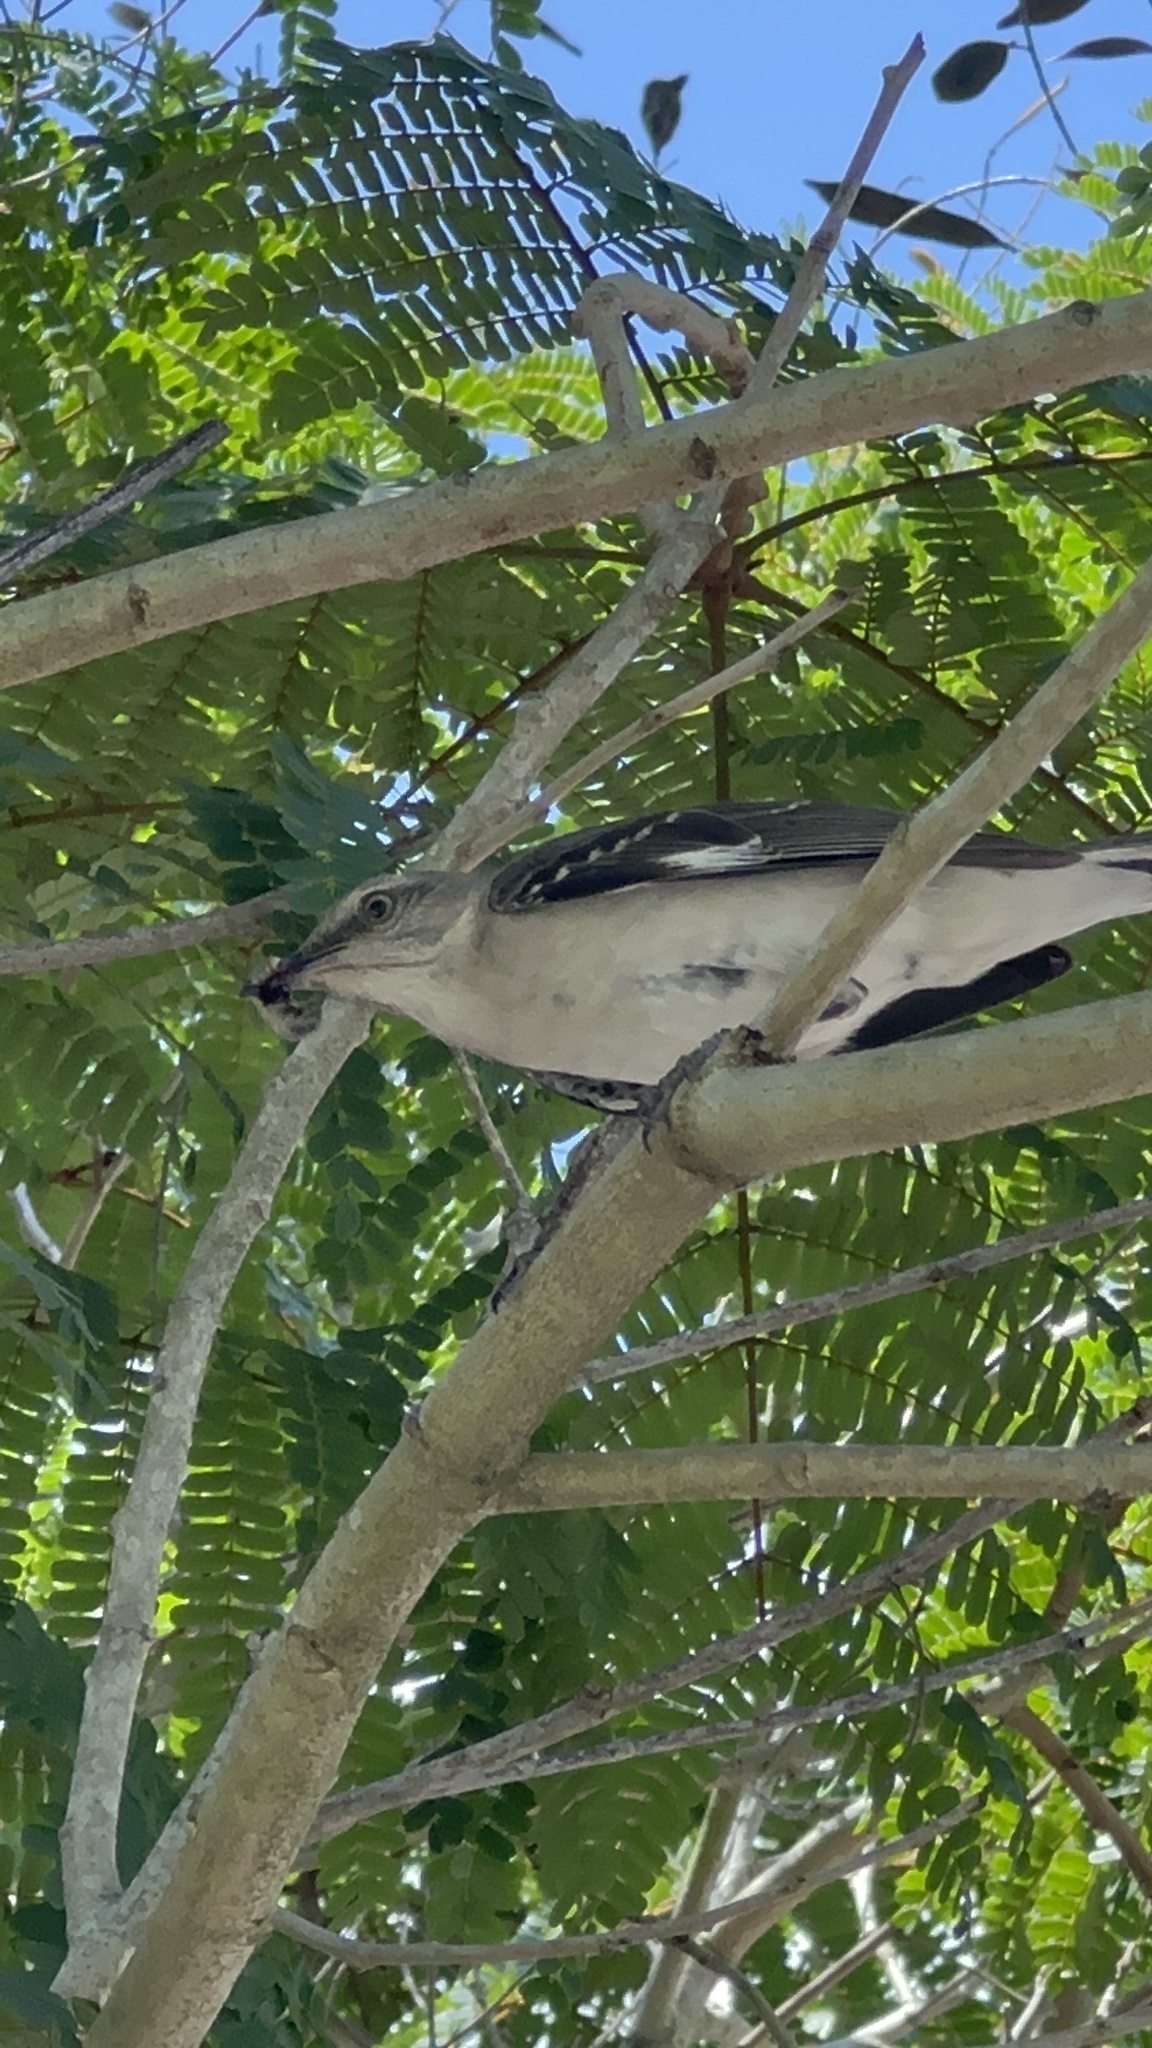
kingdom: Animalia
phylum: Chordata
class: Aves
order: Passeriformes
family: Mimidae
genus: Mimus
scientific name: Mimus polyglottos
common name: Northern mockingbird
